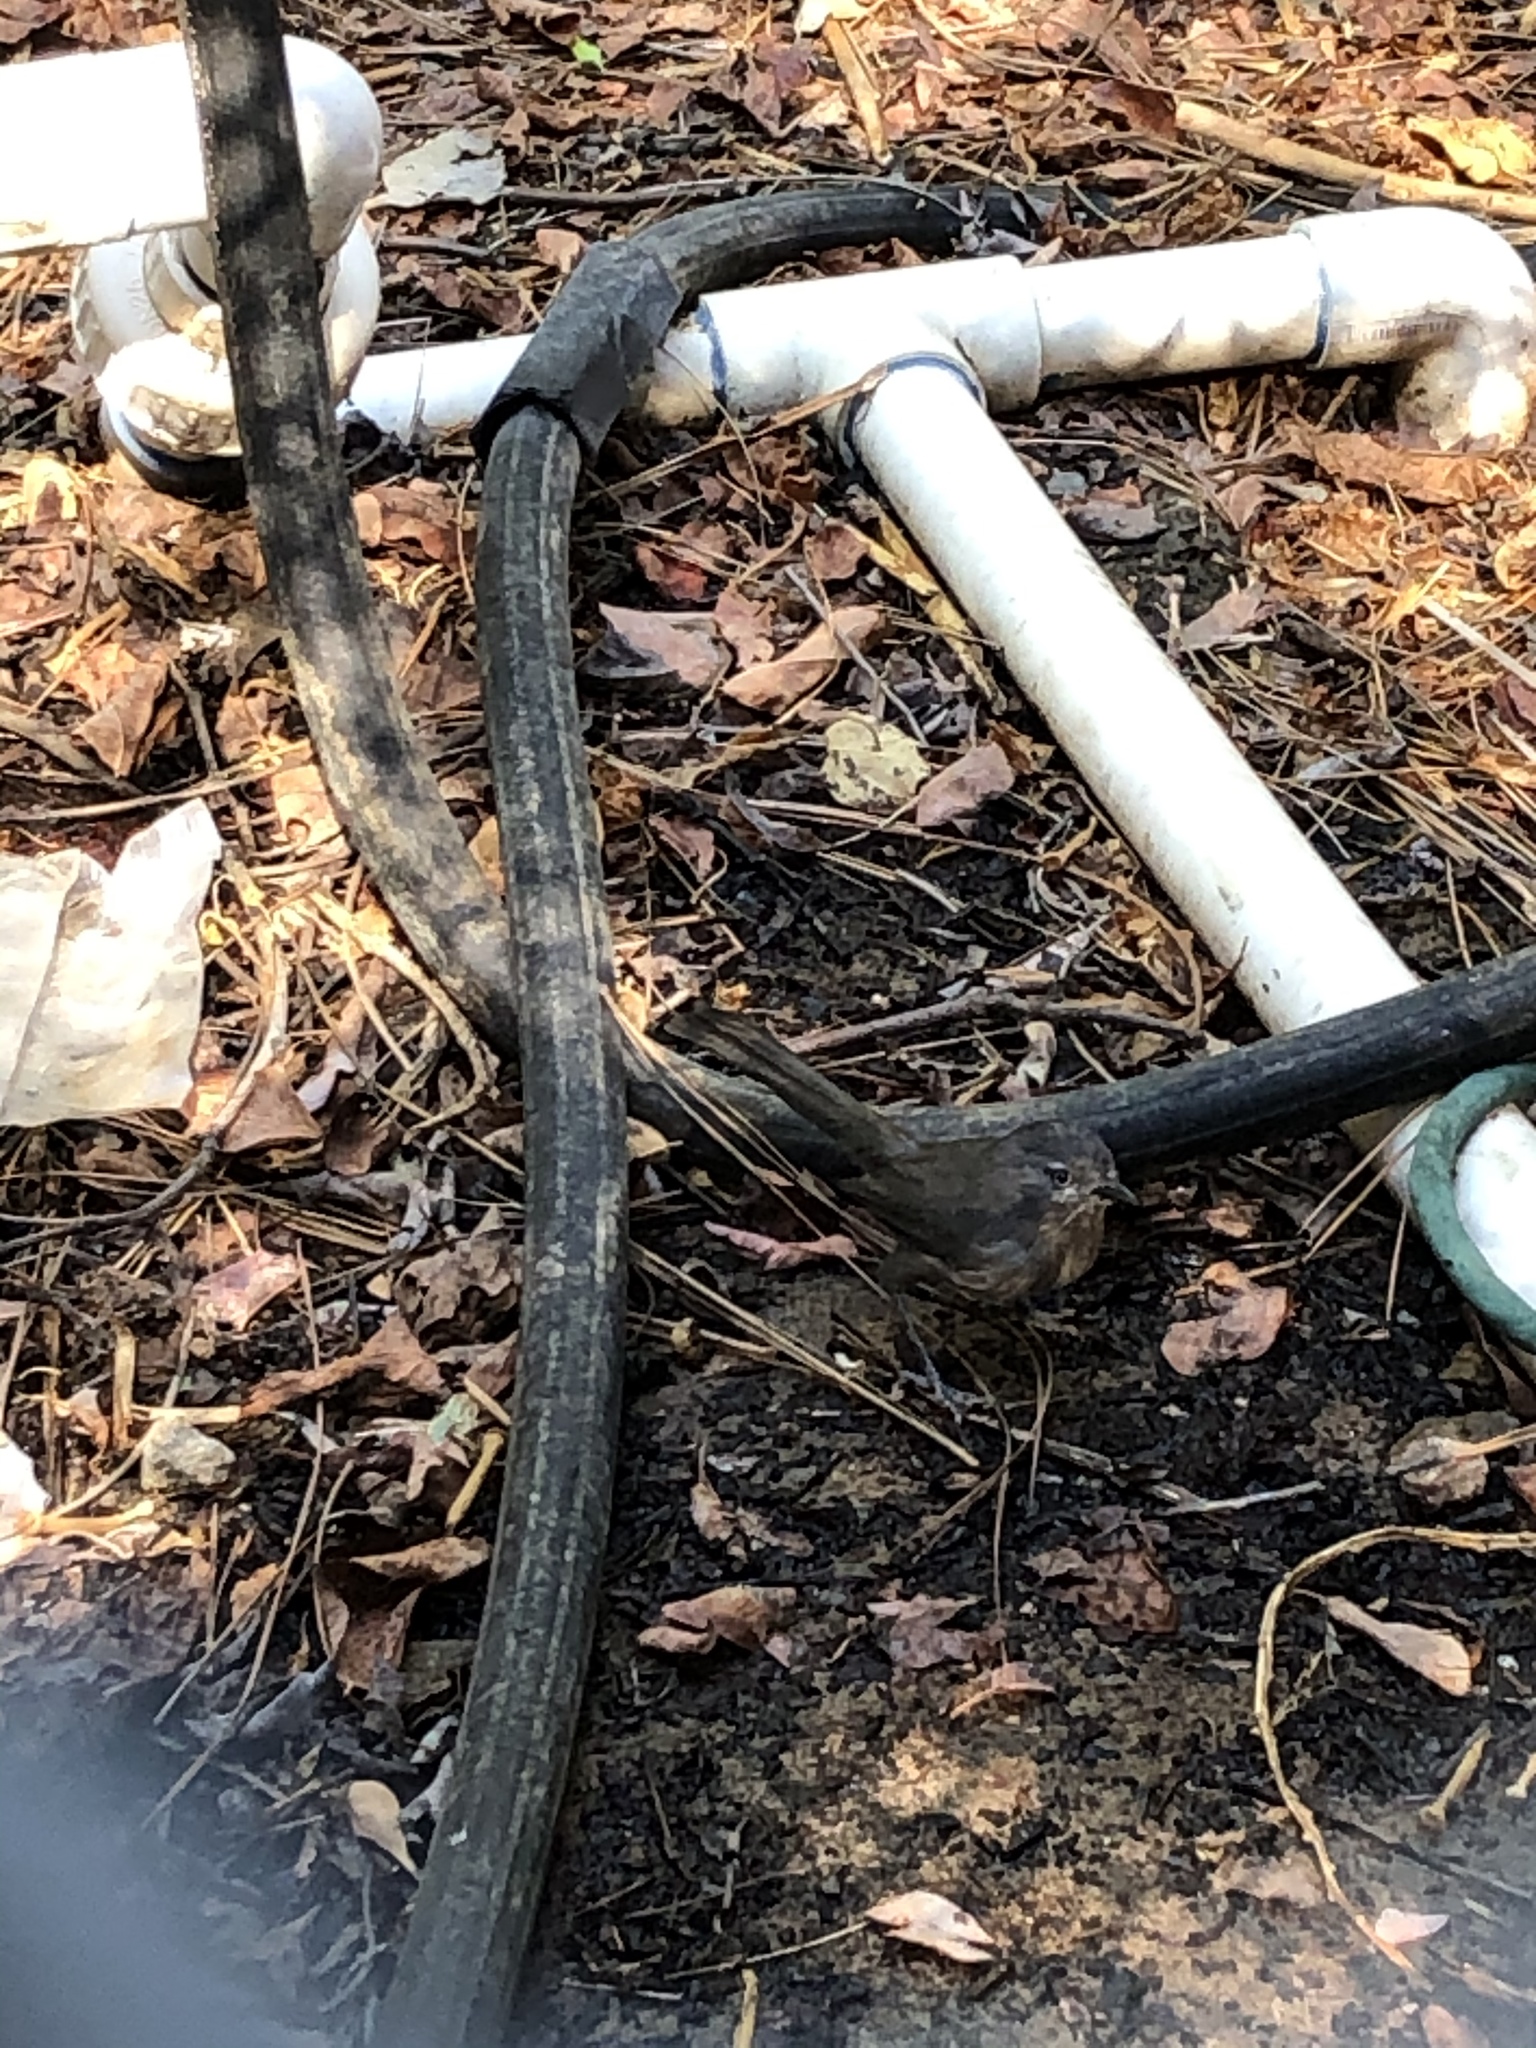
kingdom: Animalia
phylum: Chordata
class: Aves
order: Passeriformes
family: Sylviidae
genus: Chamaea
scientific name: Chamaea fasciata
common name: Wrentit
